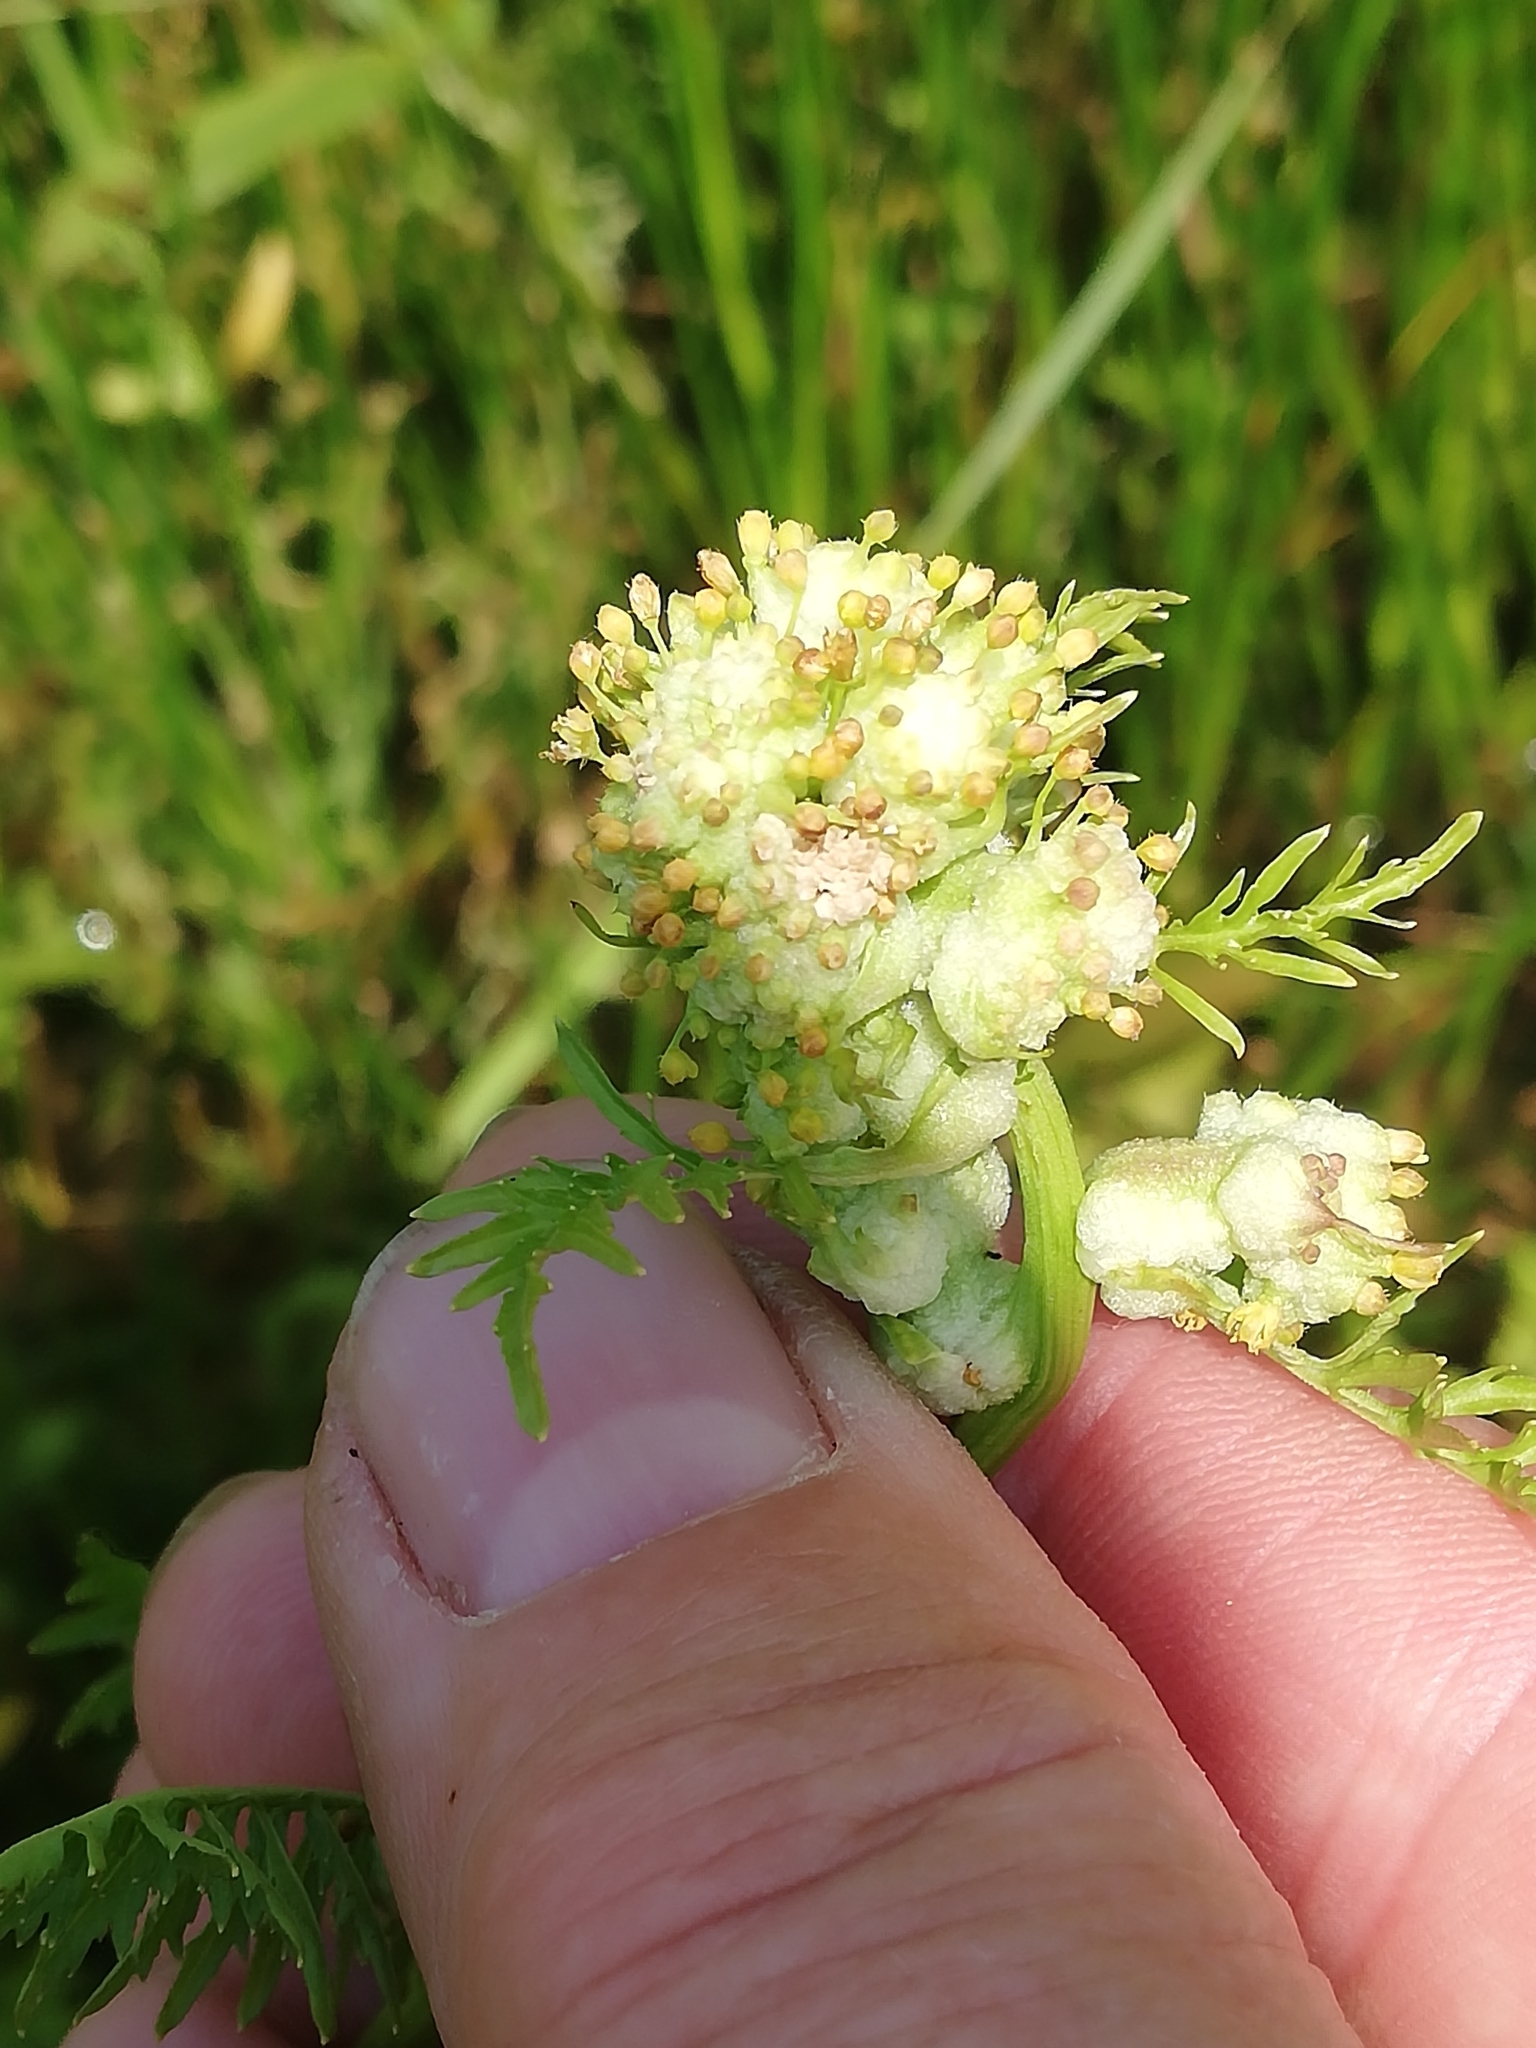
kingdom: Plantae
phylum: Tracheophyta
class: Magnoliopsida
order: Brassicales
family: Brassicaceae
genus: Rorippa
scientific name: Rorippa palustris
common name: Marsh yellow-cress
